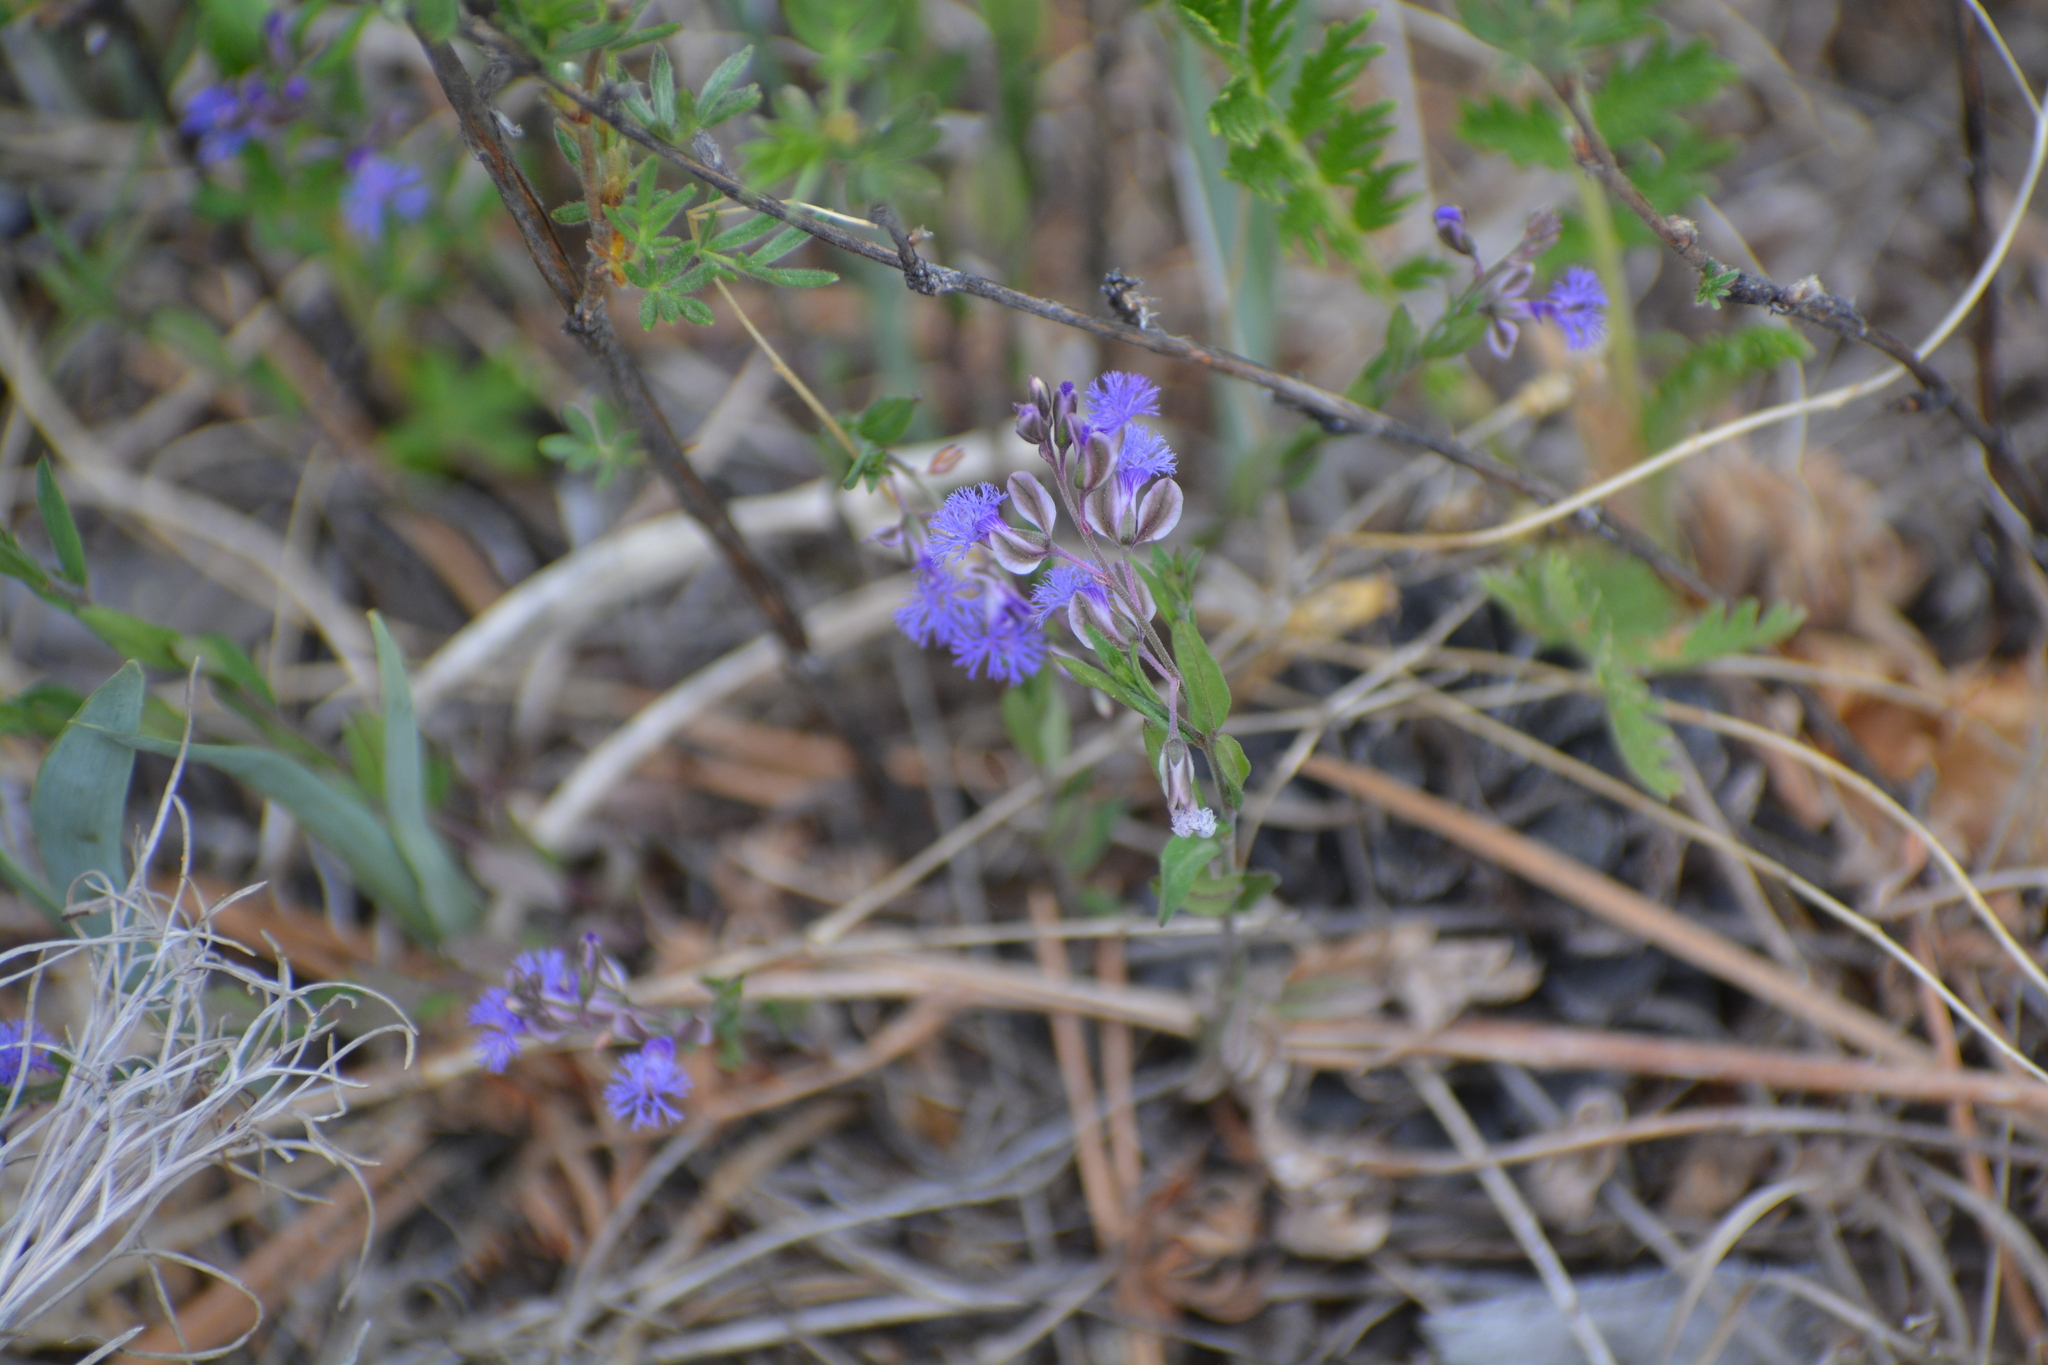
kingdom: Plantae
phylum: Tracheophyta
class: Magnoliopsida
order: Fabales
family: Polygalaceae
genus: Polygala
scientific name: Polygala sibirica
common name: Siberian polygala
